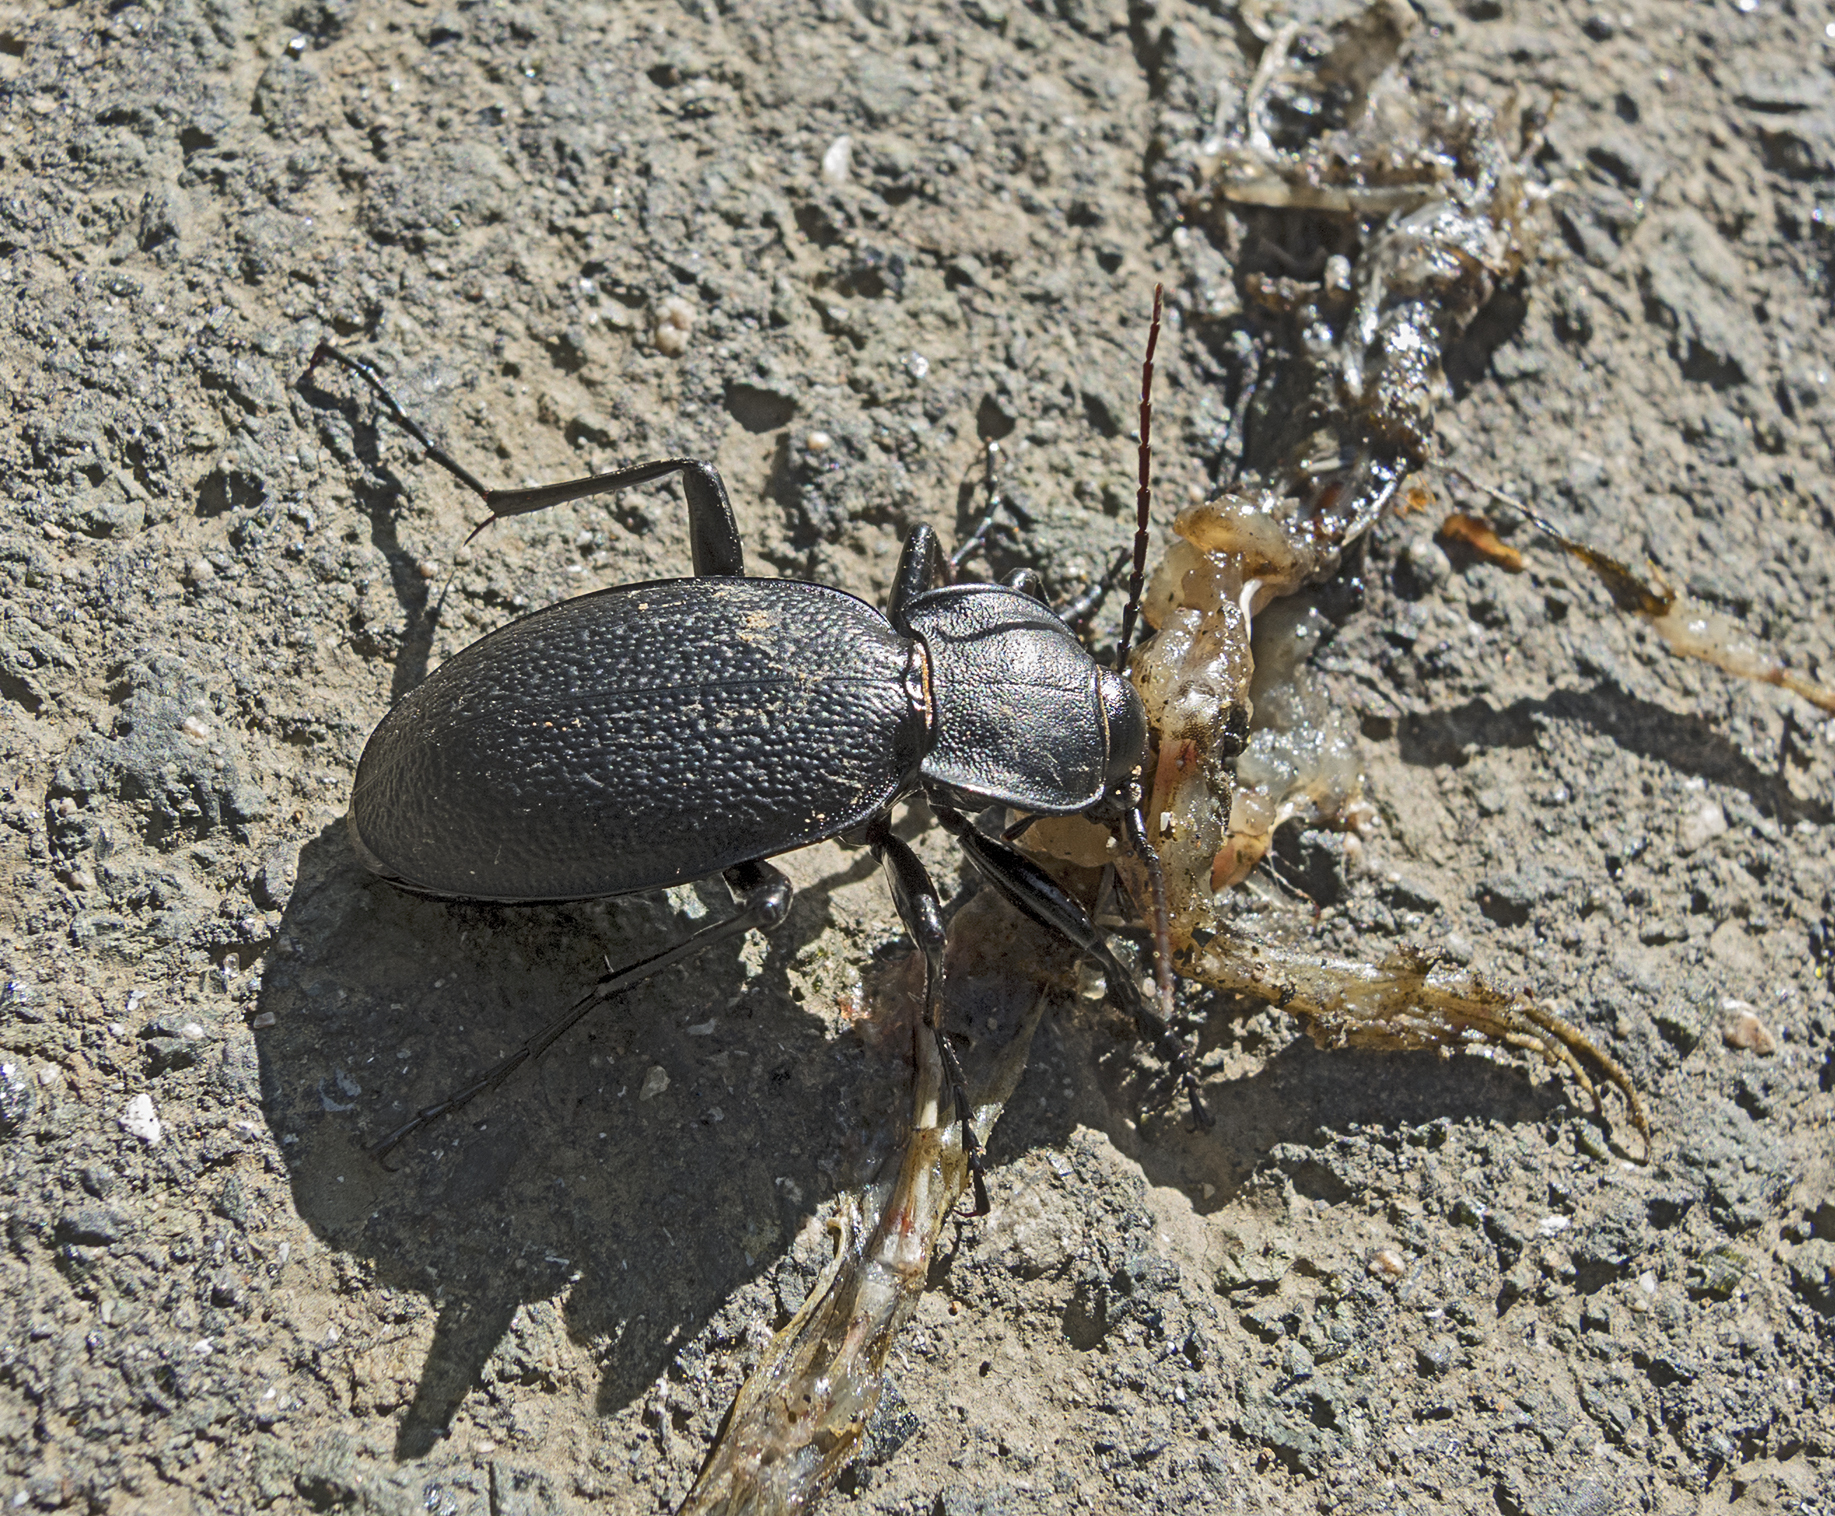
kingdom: Animalia
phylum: Arthropoda
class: Insecta
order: Coleoptera
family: Carabidae
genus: Carabus
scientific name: Carabus coriaceus
